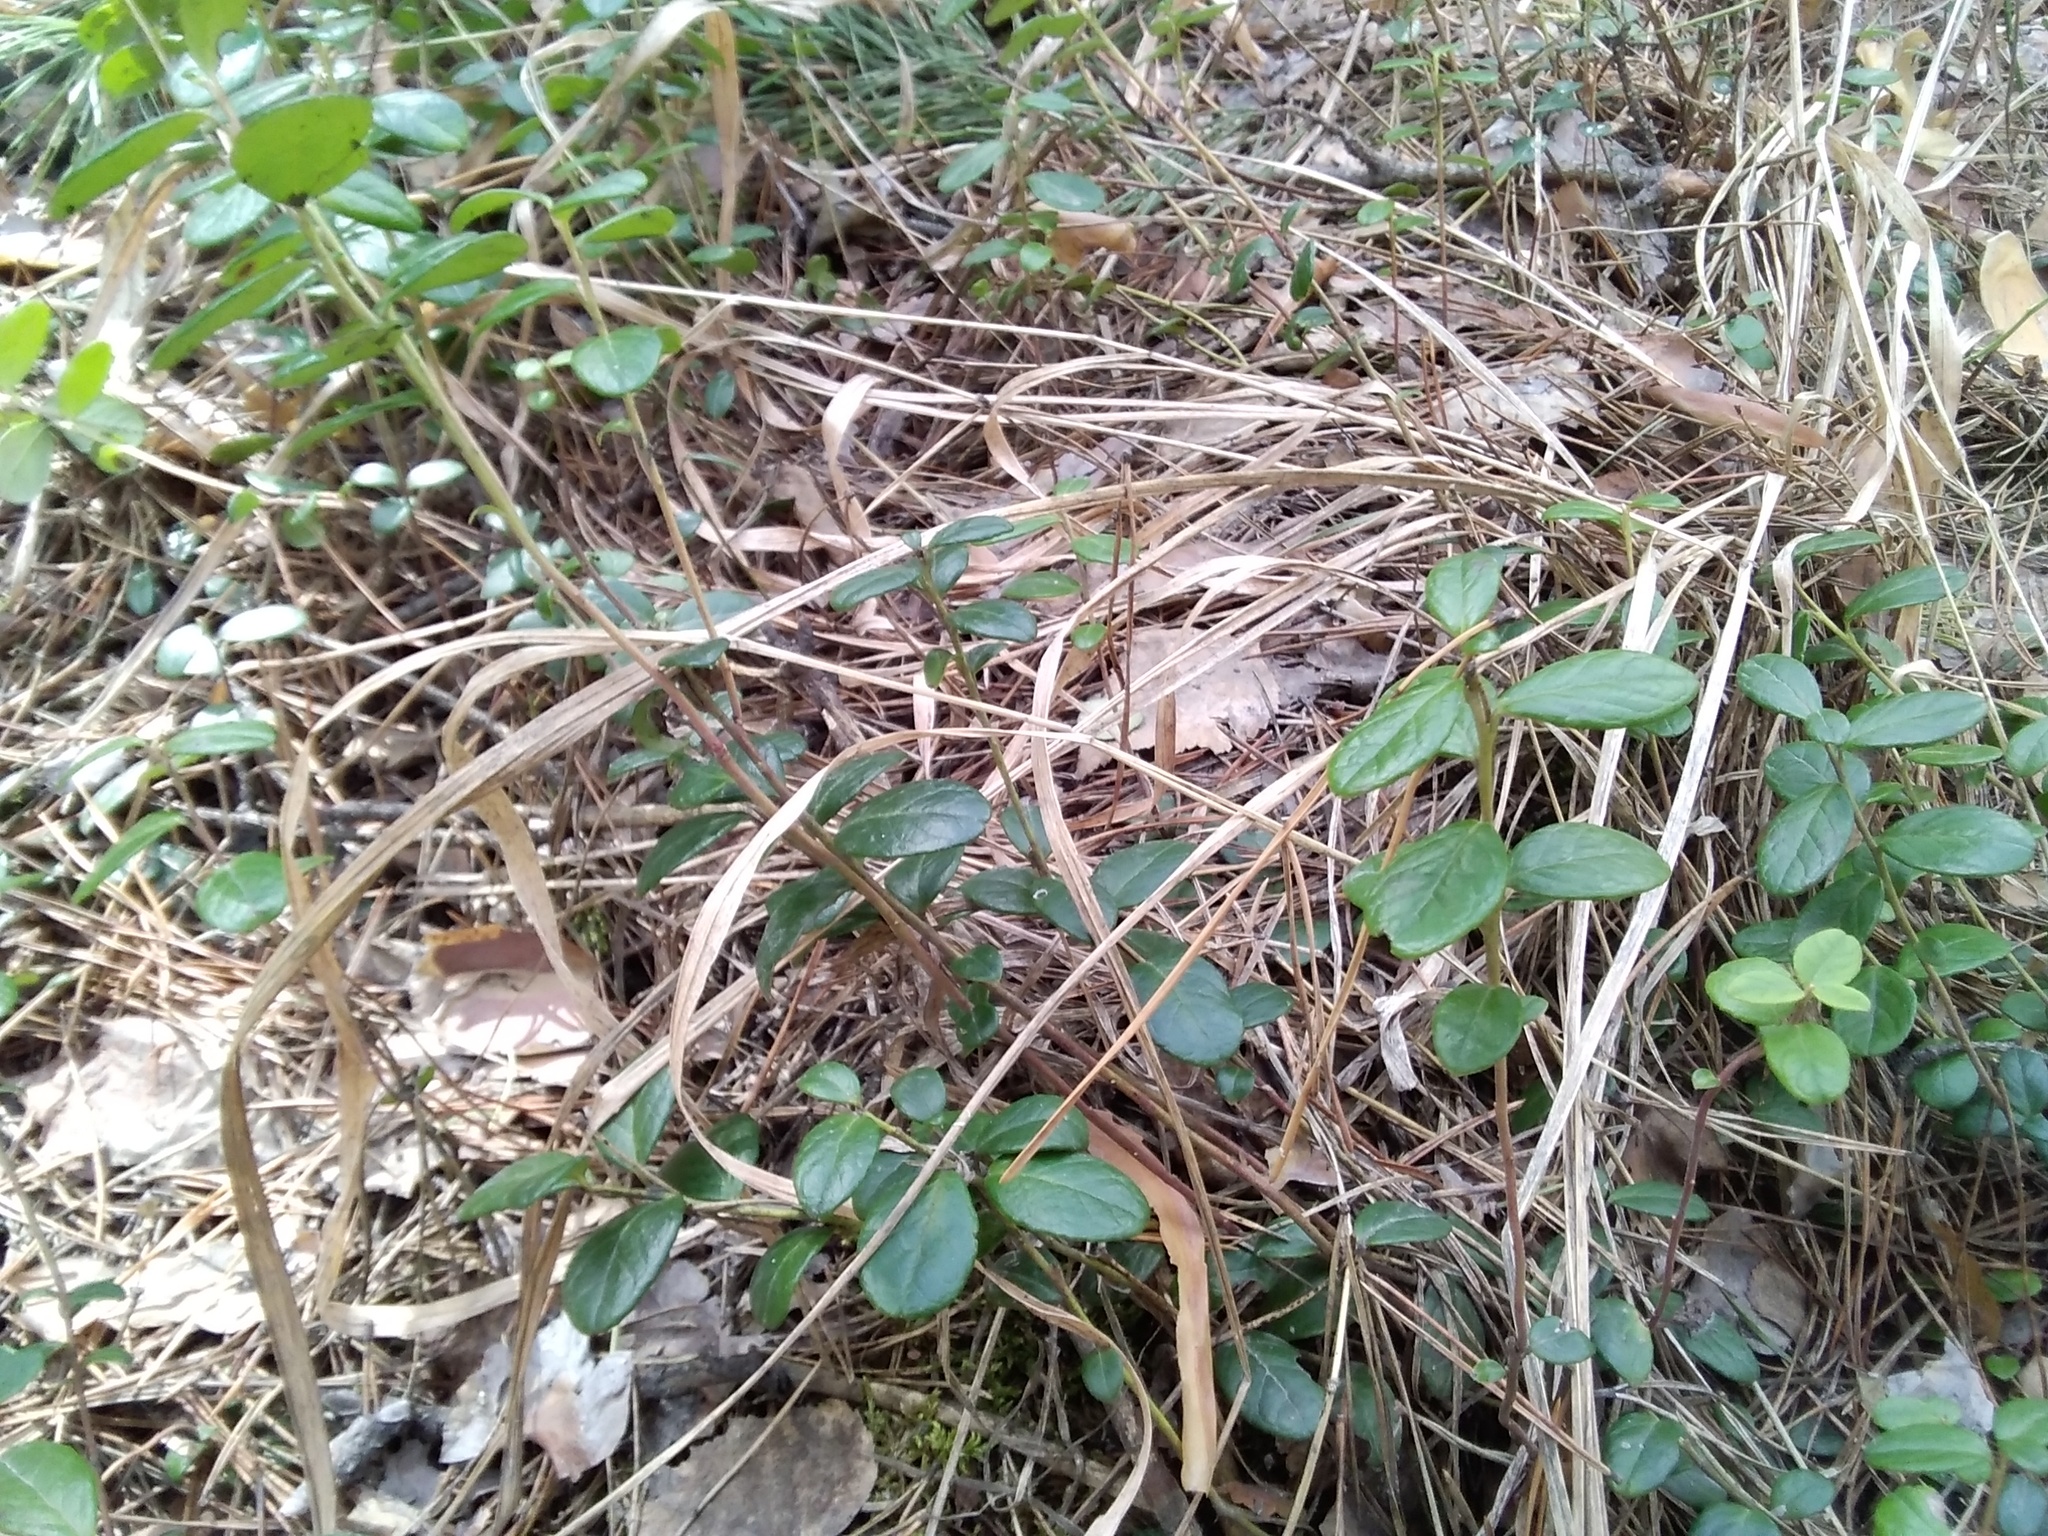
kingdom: Plantae
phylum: Tracheophyta
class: Magnoliopsida
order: Ericales
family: Ericaceae
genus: Vaccinium
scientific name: Vaccinium vitis-idaea
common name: Cowberry
